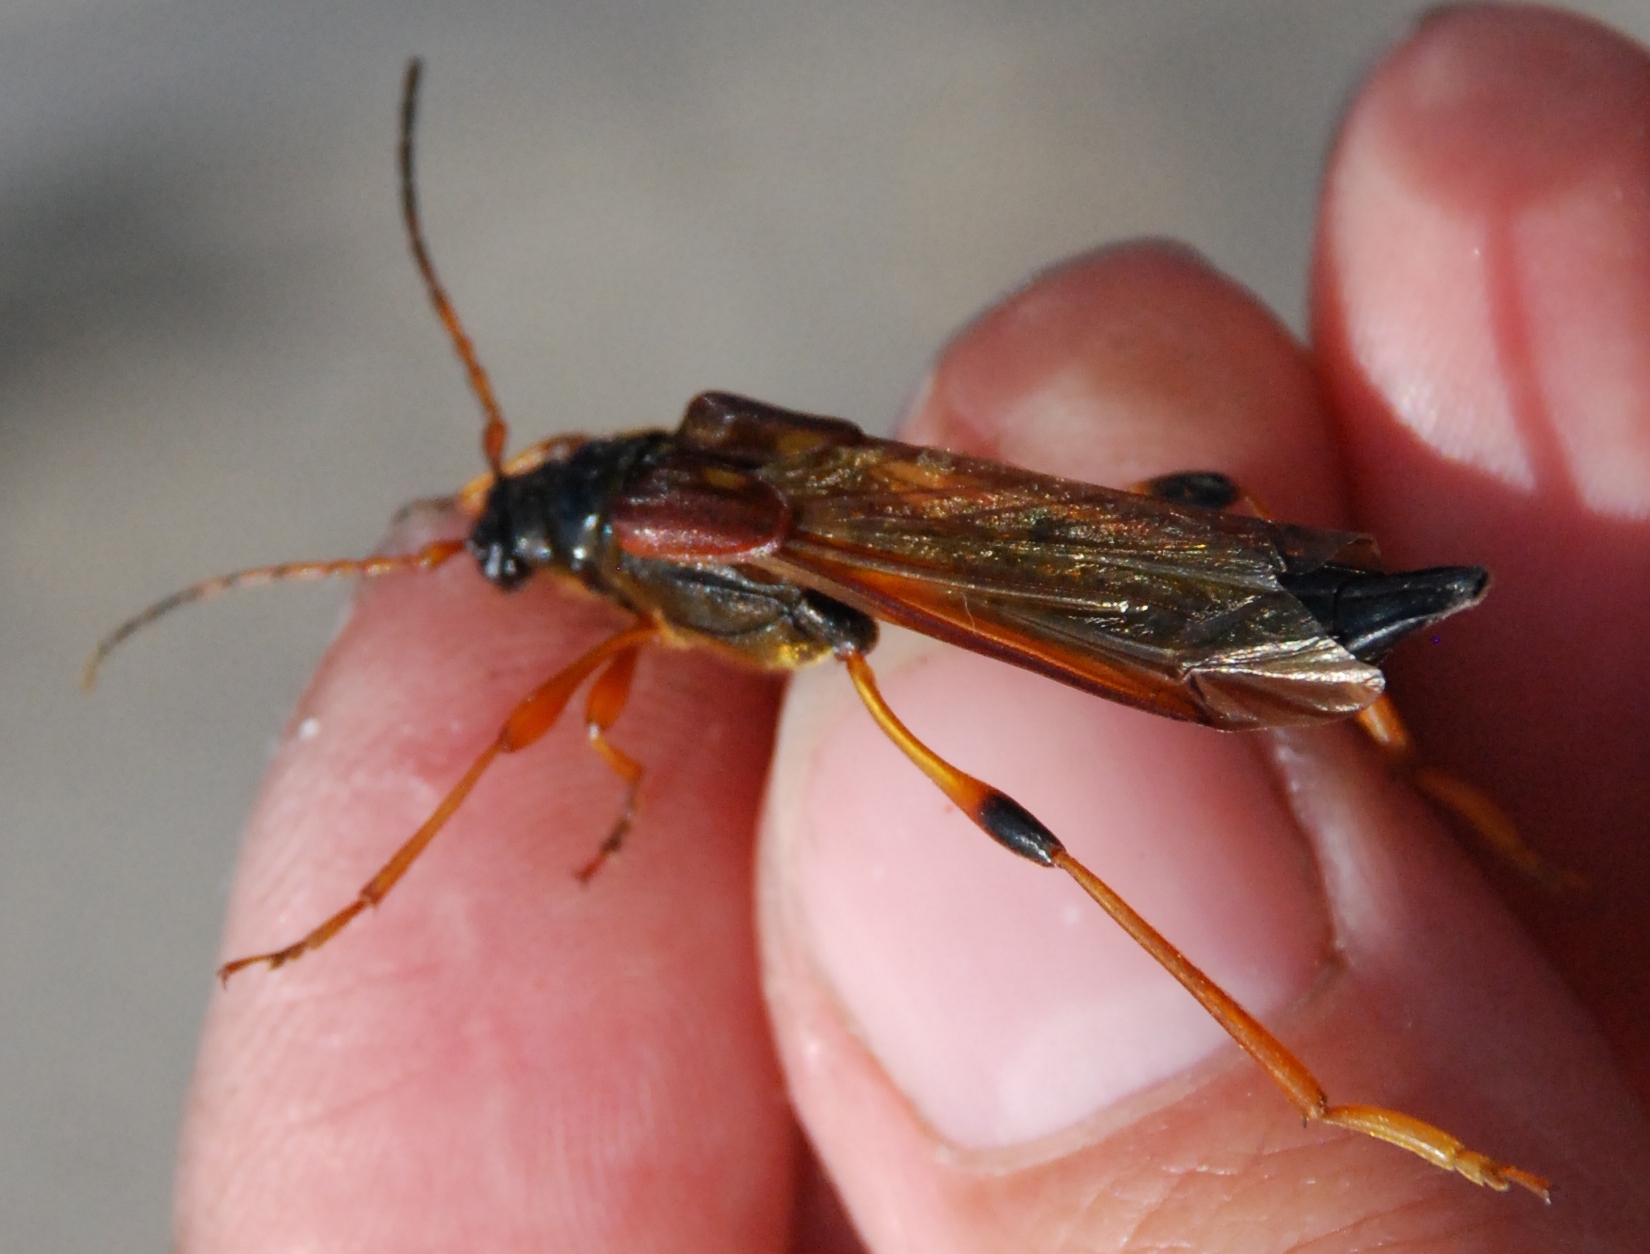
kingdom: Animalia
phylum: Arthropoda
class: Insecta
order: Coleoptera
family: Cerambycidae
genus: Necydalis
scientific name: Necydalis major
